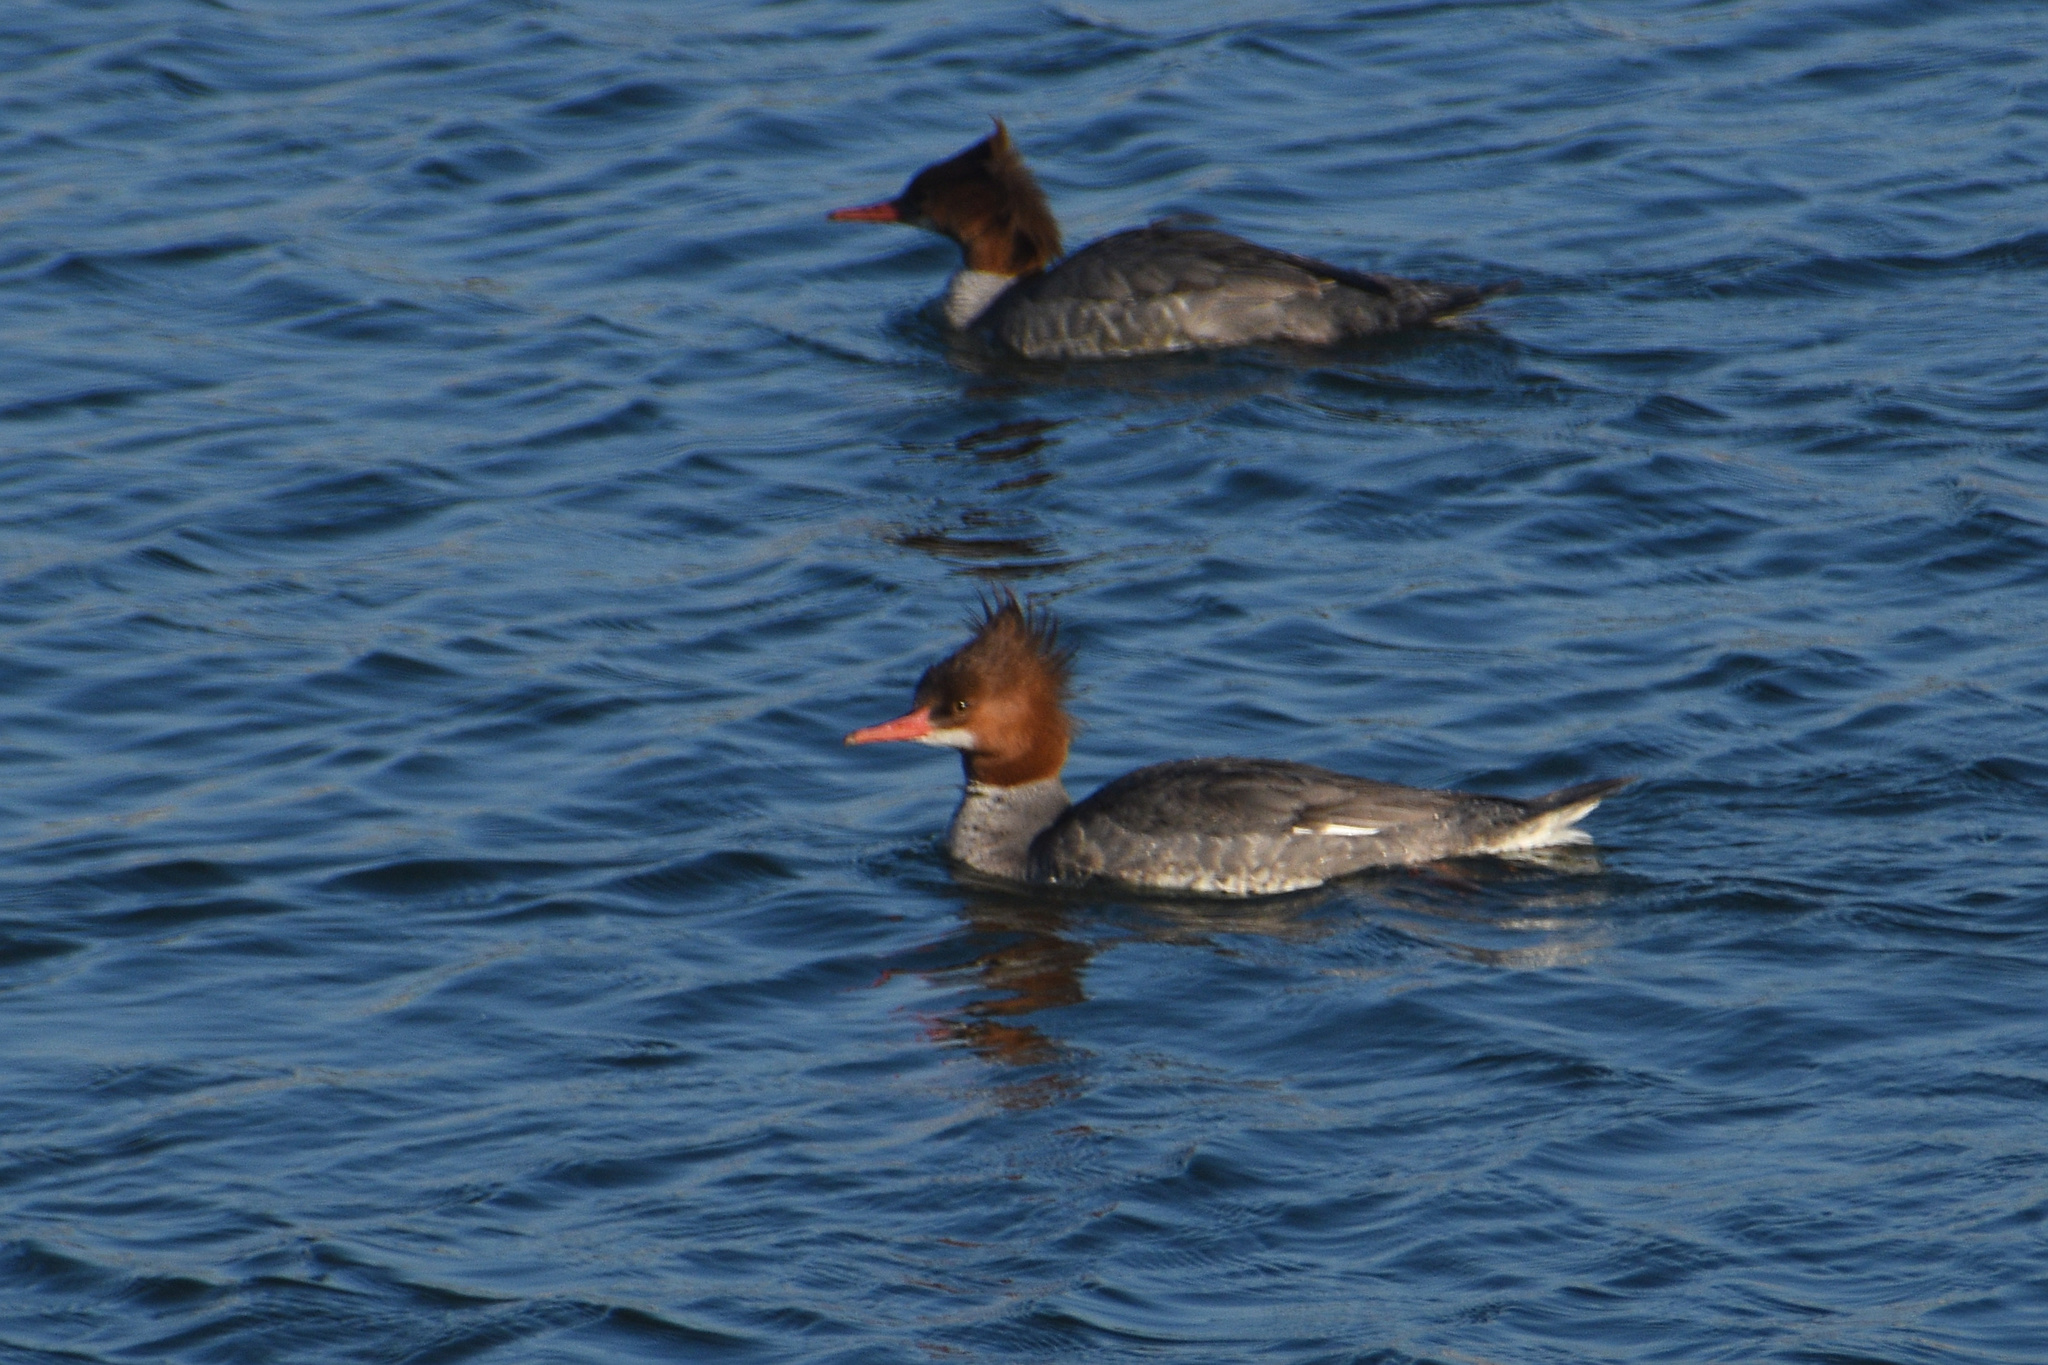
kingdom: Animalia
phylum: Chordata
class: Aves
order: Anseriformes
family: Anatidae
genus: Mergus
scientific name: Mergus merganser
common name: Common merganser
